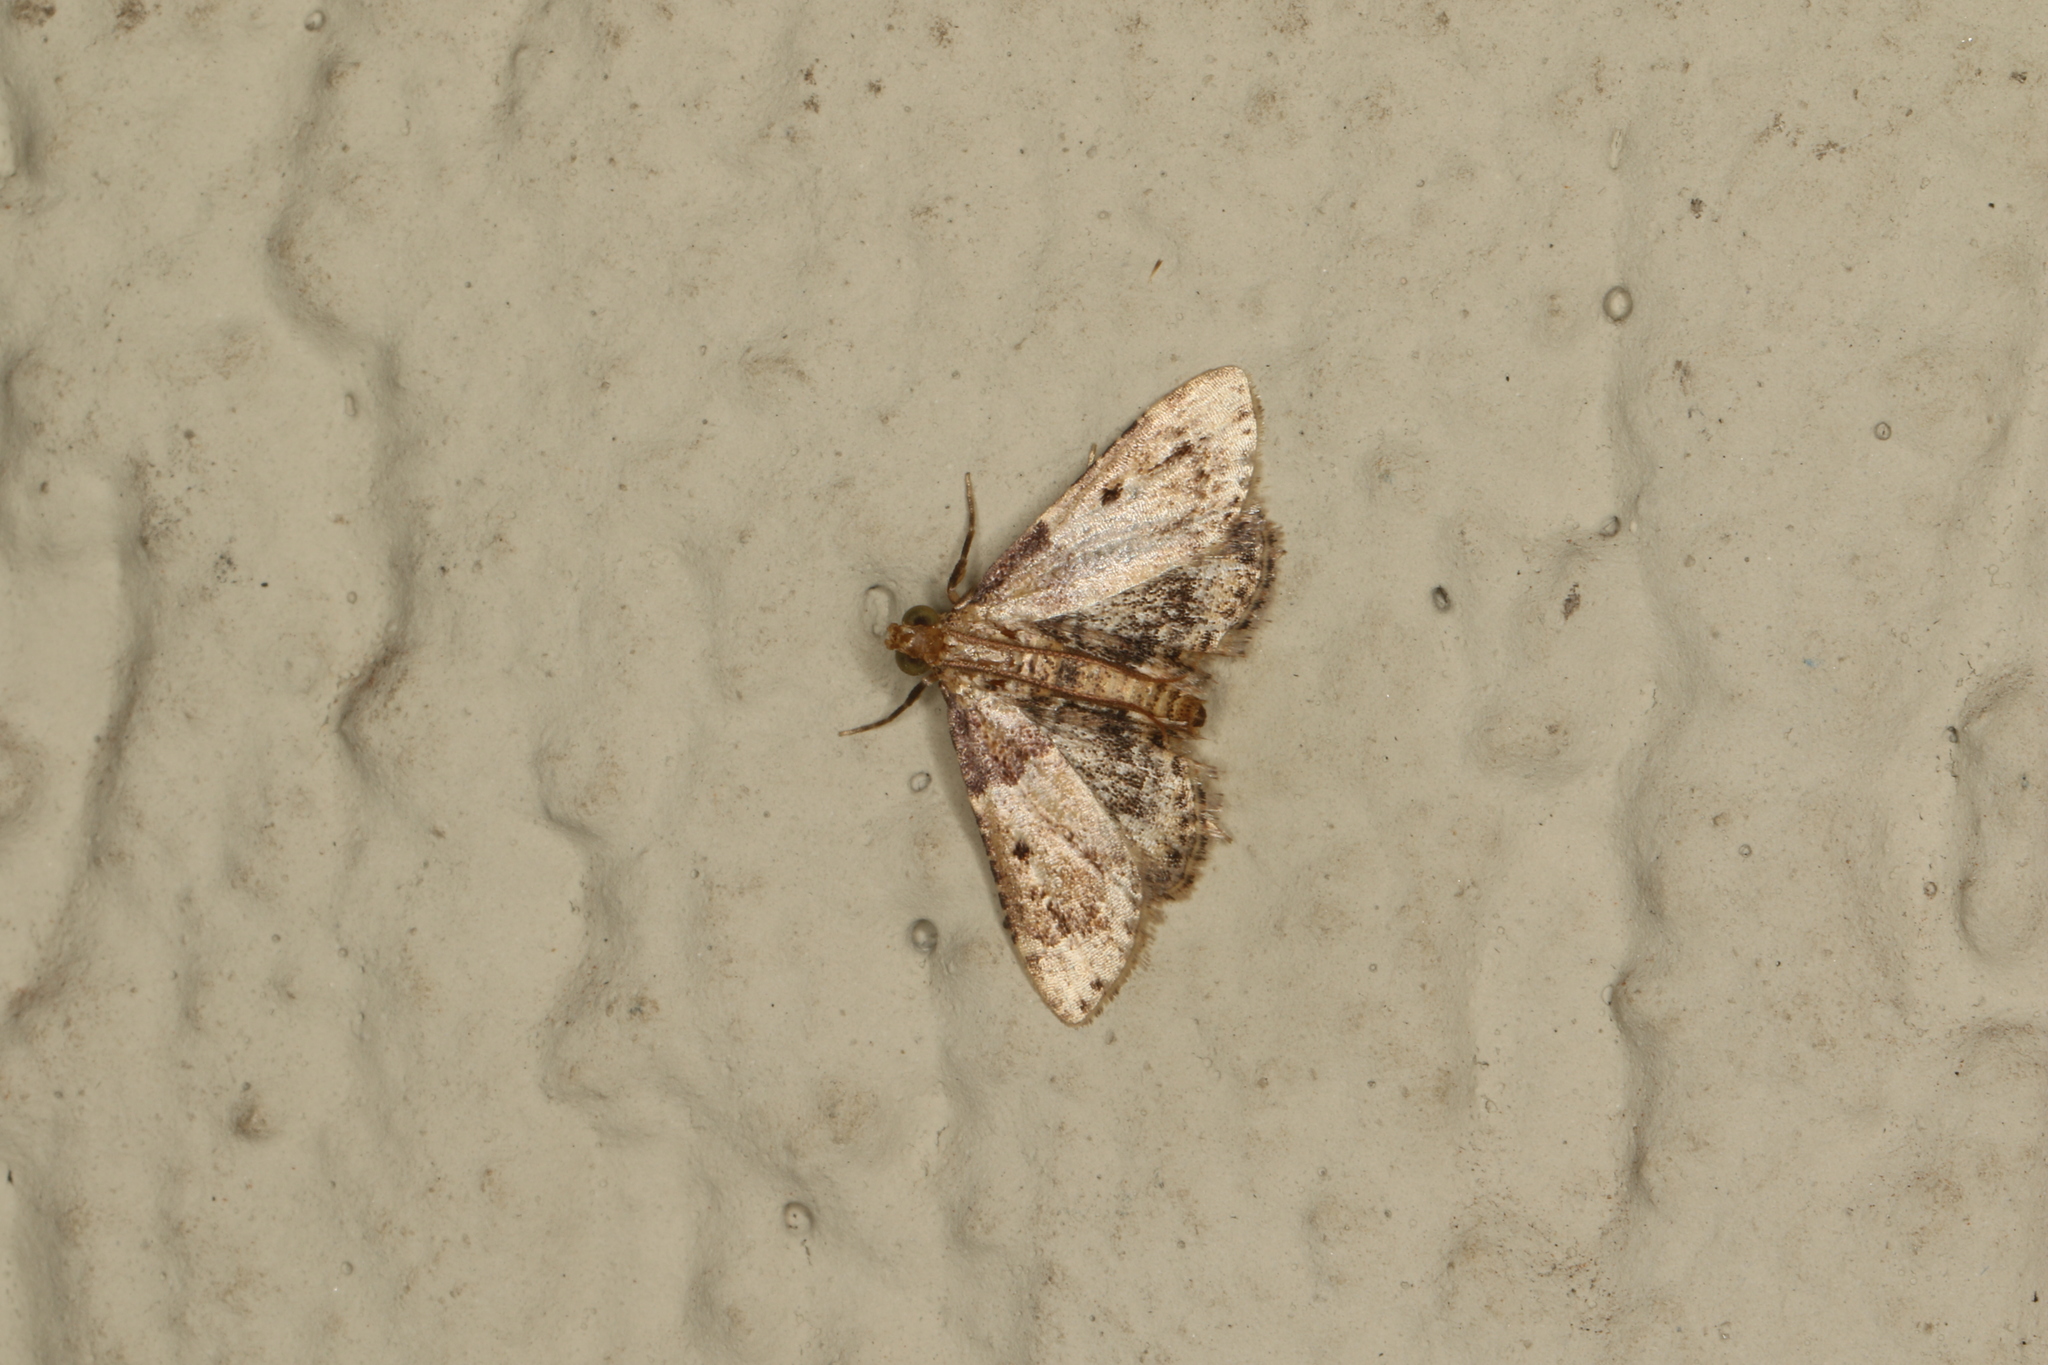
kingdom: Animalia
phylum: Arthropoda
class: Insecta
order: Lepidoptera
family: Pyralidae
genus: Pyralis
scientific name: Pyralis manihotalis
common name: Moth
